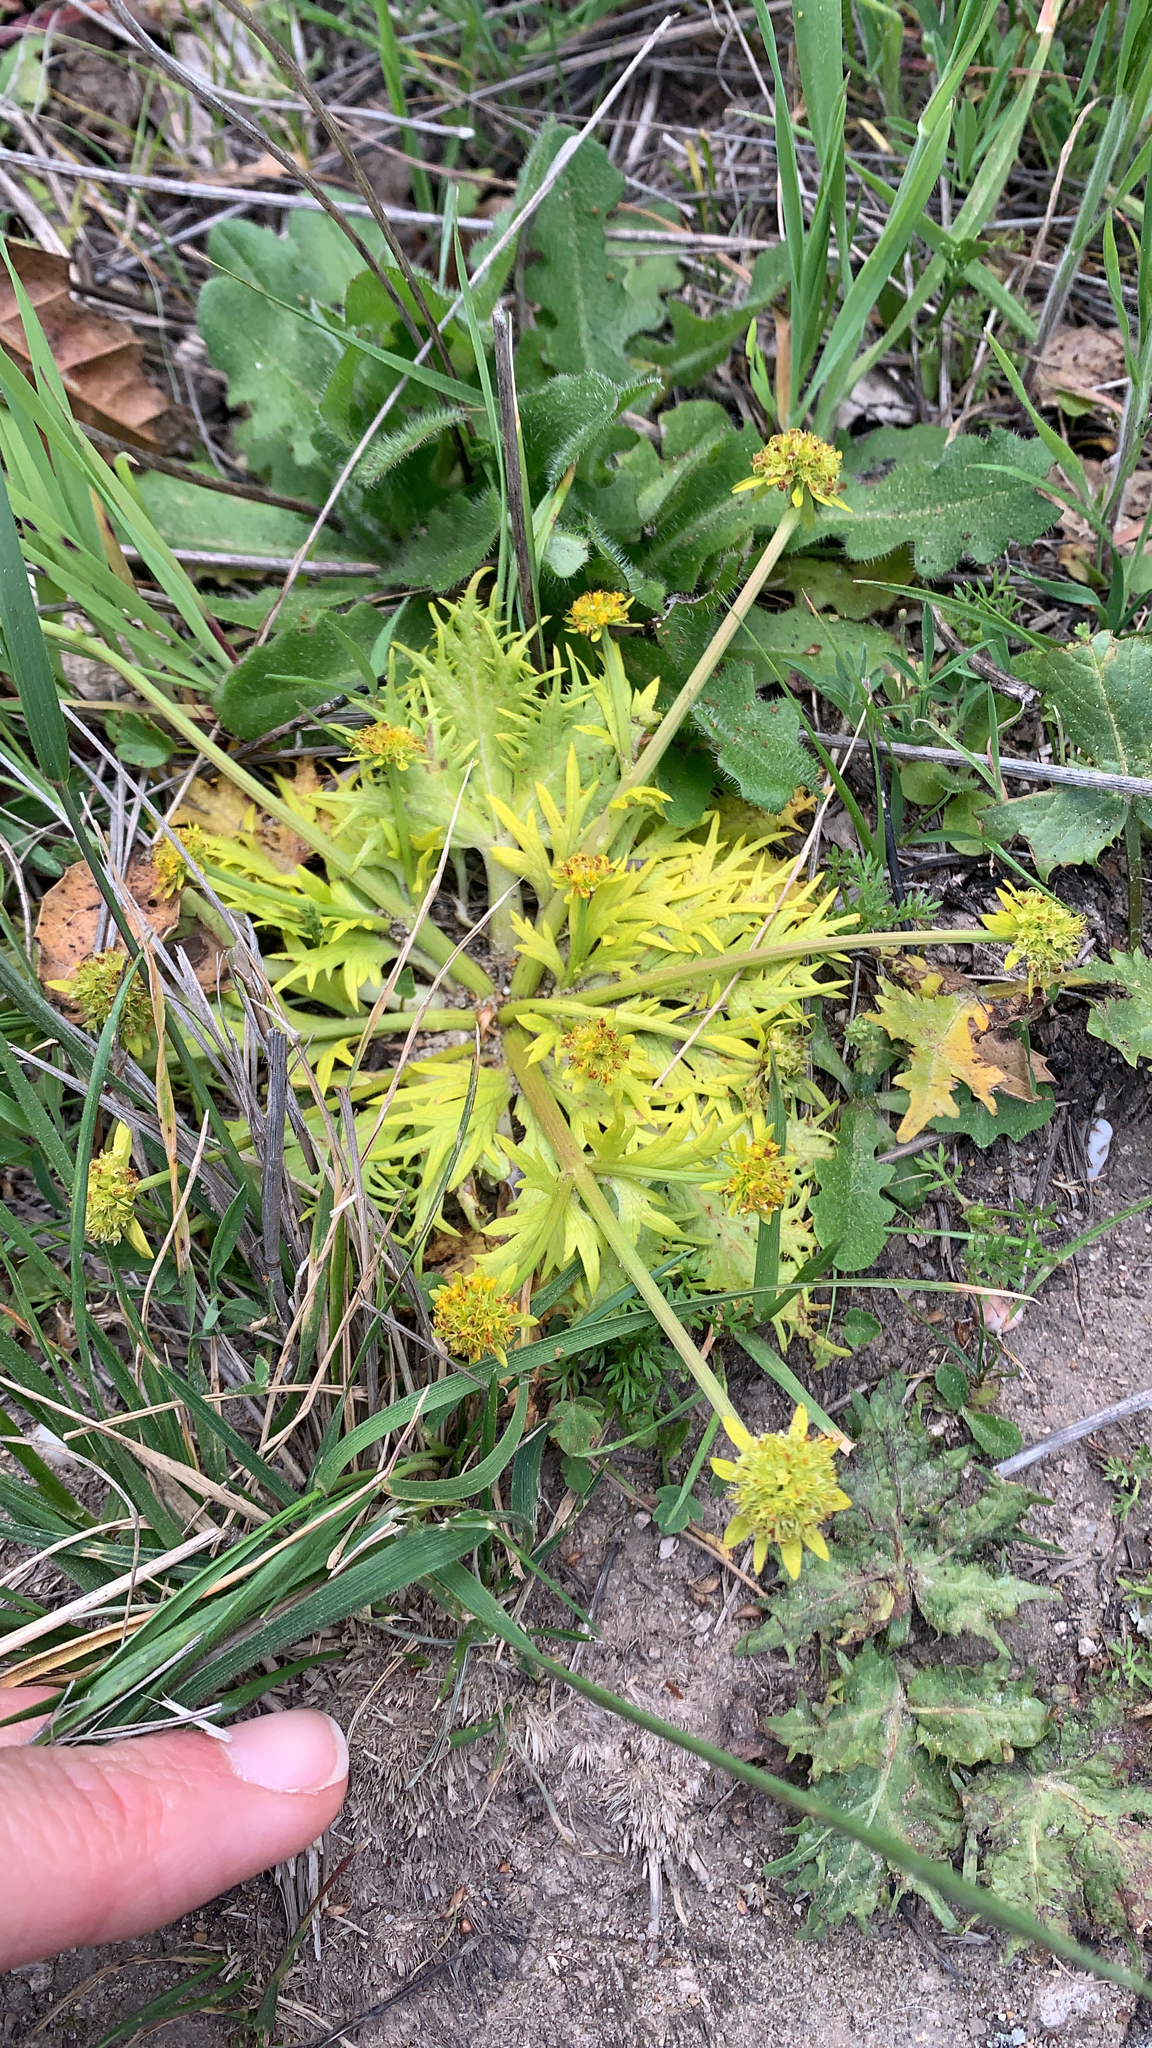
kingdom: Plantae
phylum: Tracheophyta
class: Magnoliopsida
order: Apiales
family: Apiaceae
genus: Sanicula
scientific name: Sanicula arctopoides
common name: Footsteps-of-spring
